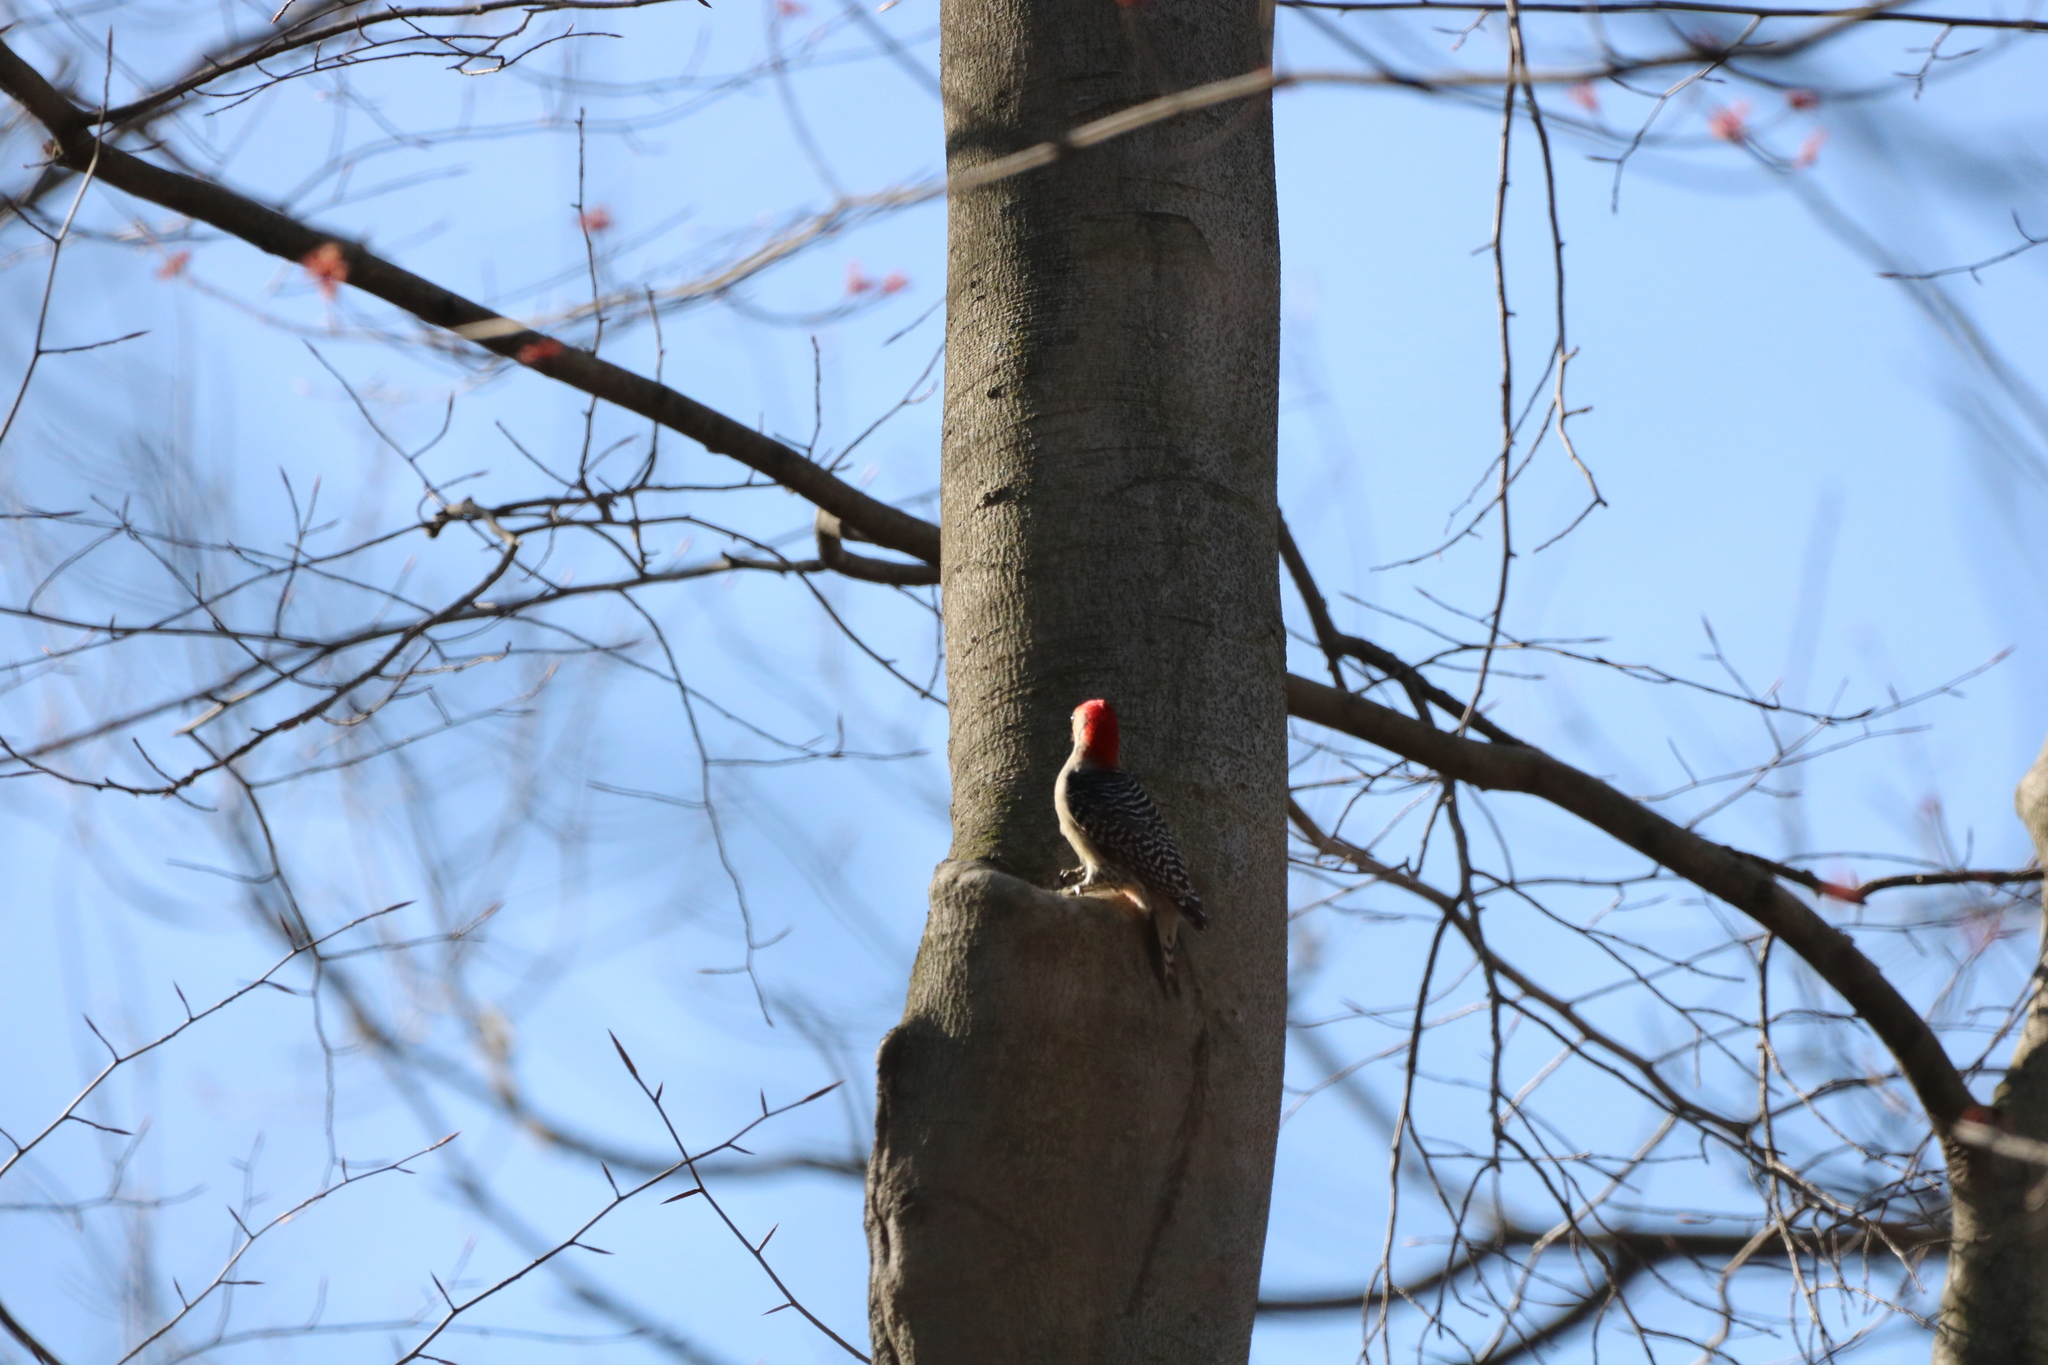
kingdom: Animalia
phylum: Chordata
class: Aves
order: Piciformes
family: Picidae
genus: Melanerpes
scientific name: Melanerpes carolinus
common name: Red-bellied woodpecker
